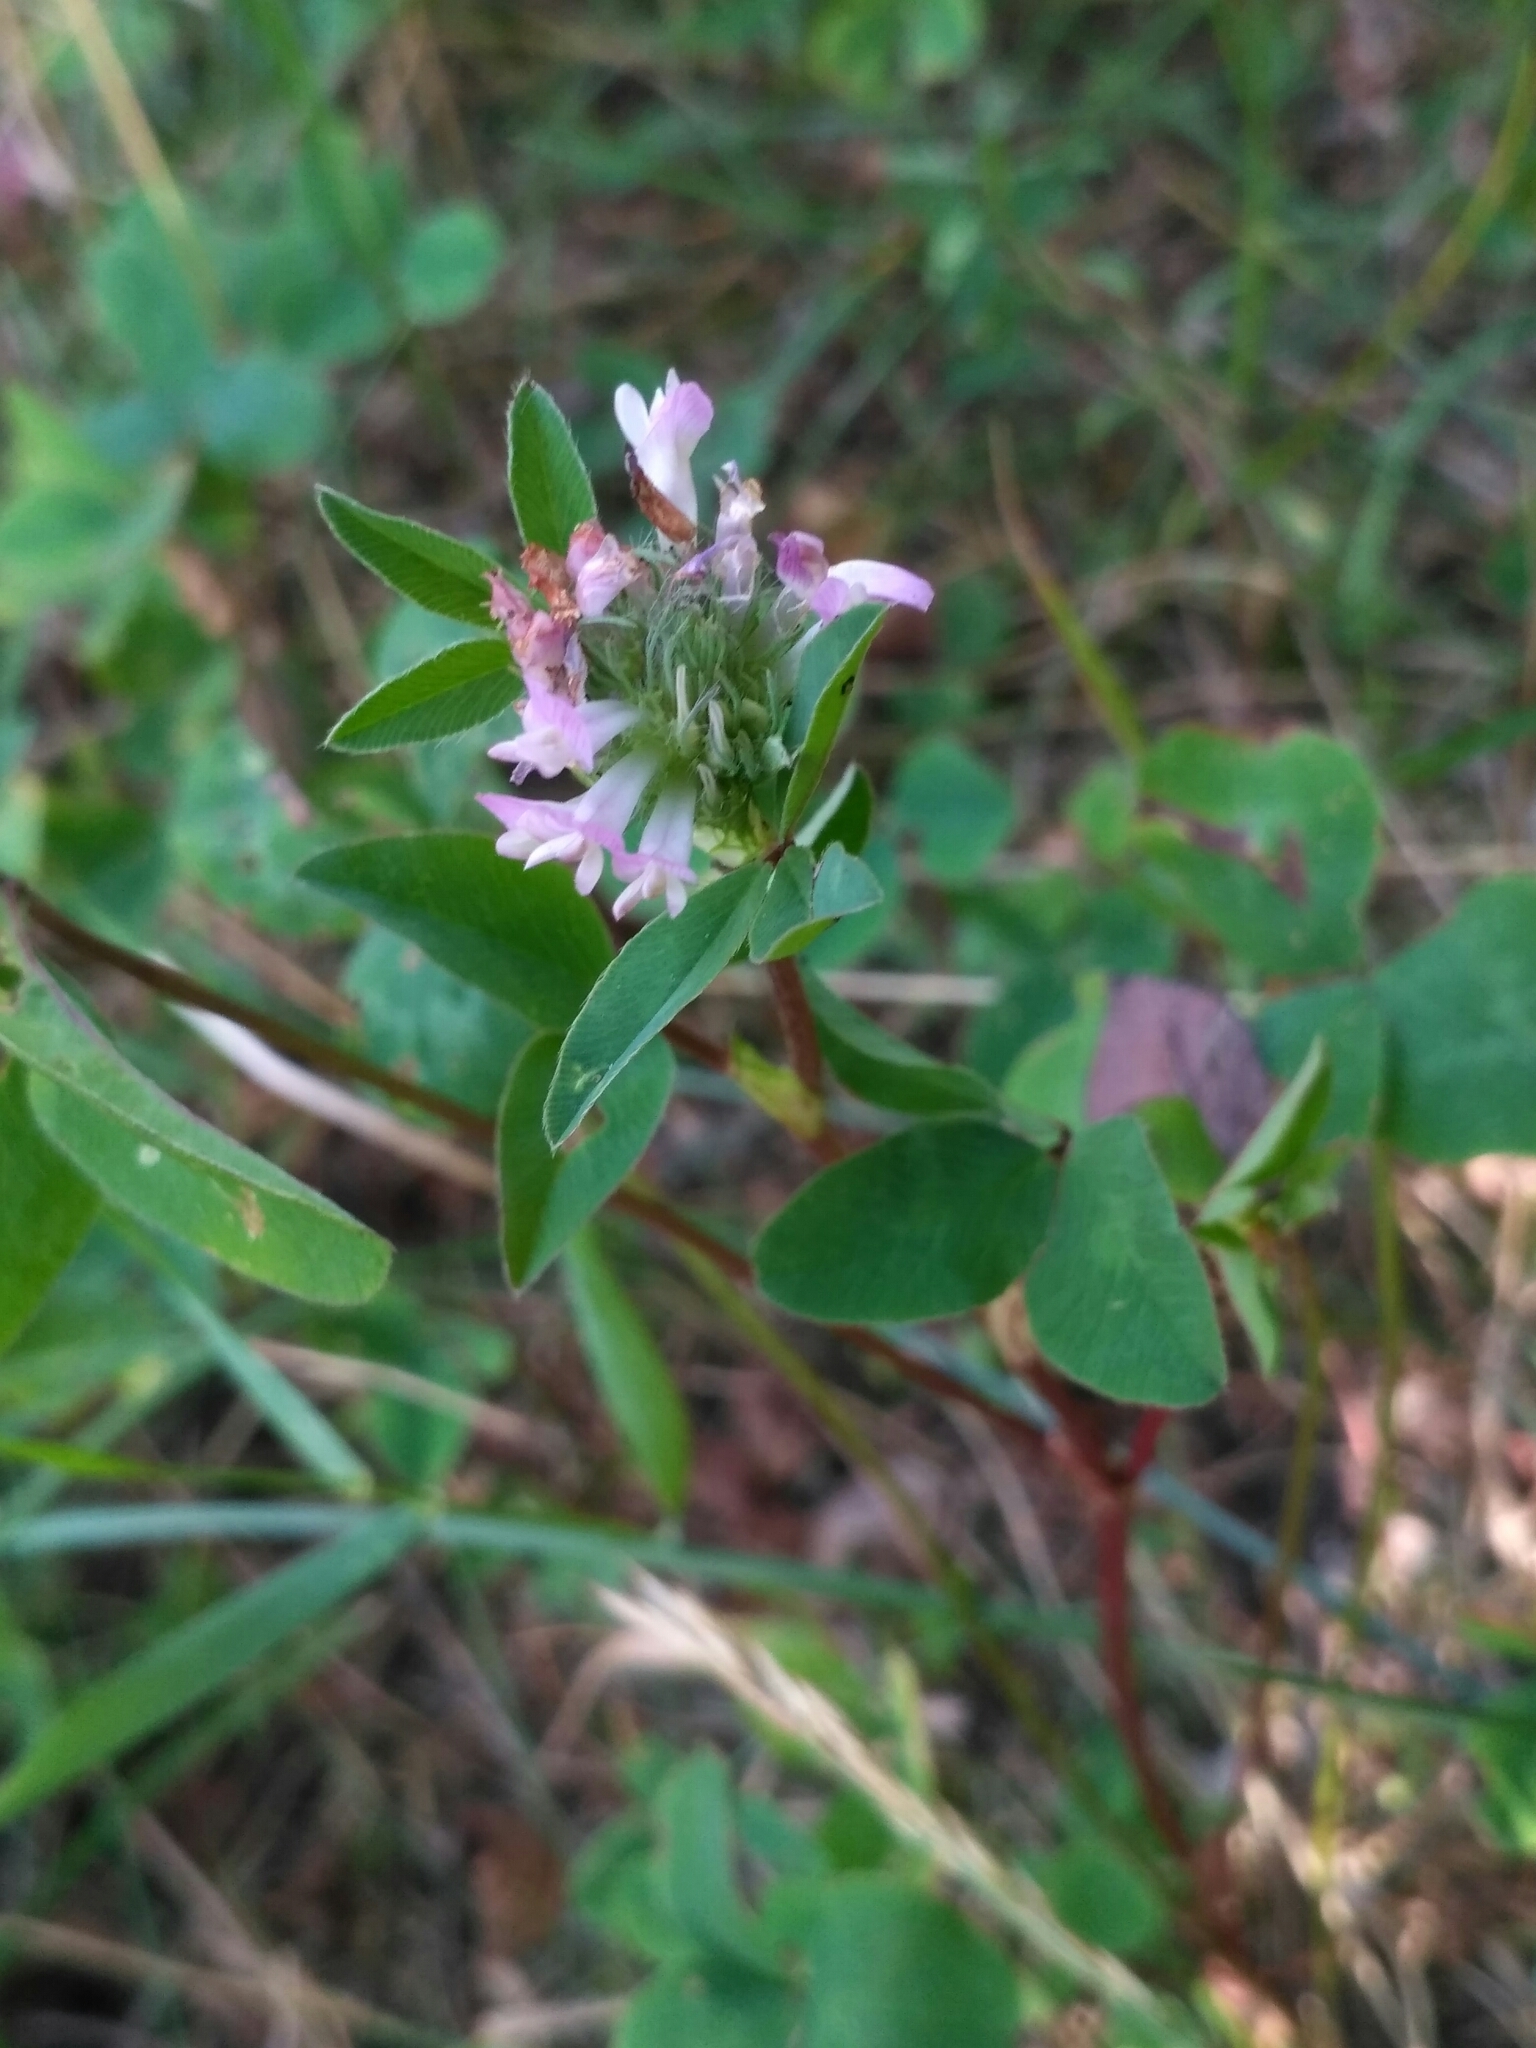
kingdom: Plantae
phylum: Tracheophyta
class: Magnoliopsida
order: Fabales
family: Fabaceae
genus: Trifolium
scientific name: Trifolium medium
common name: Zigzag clover
